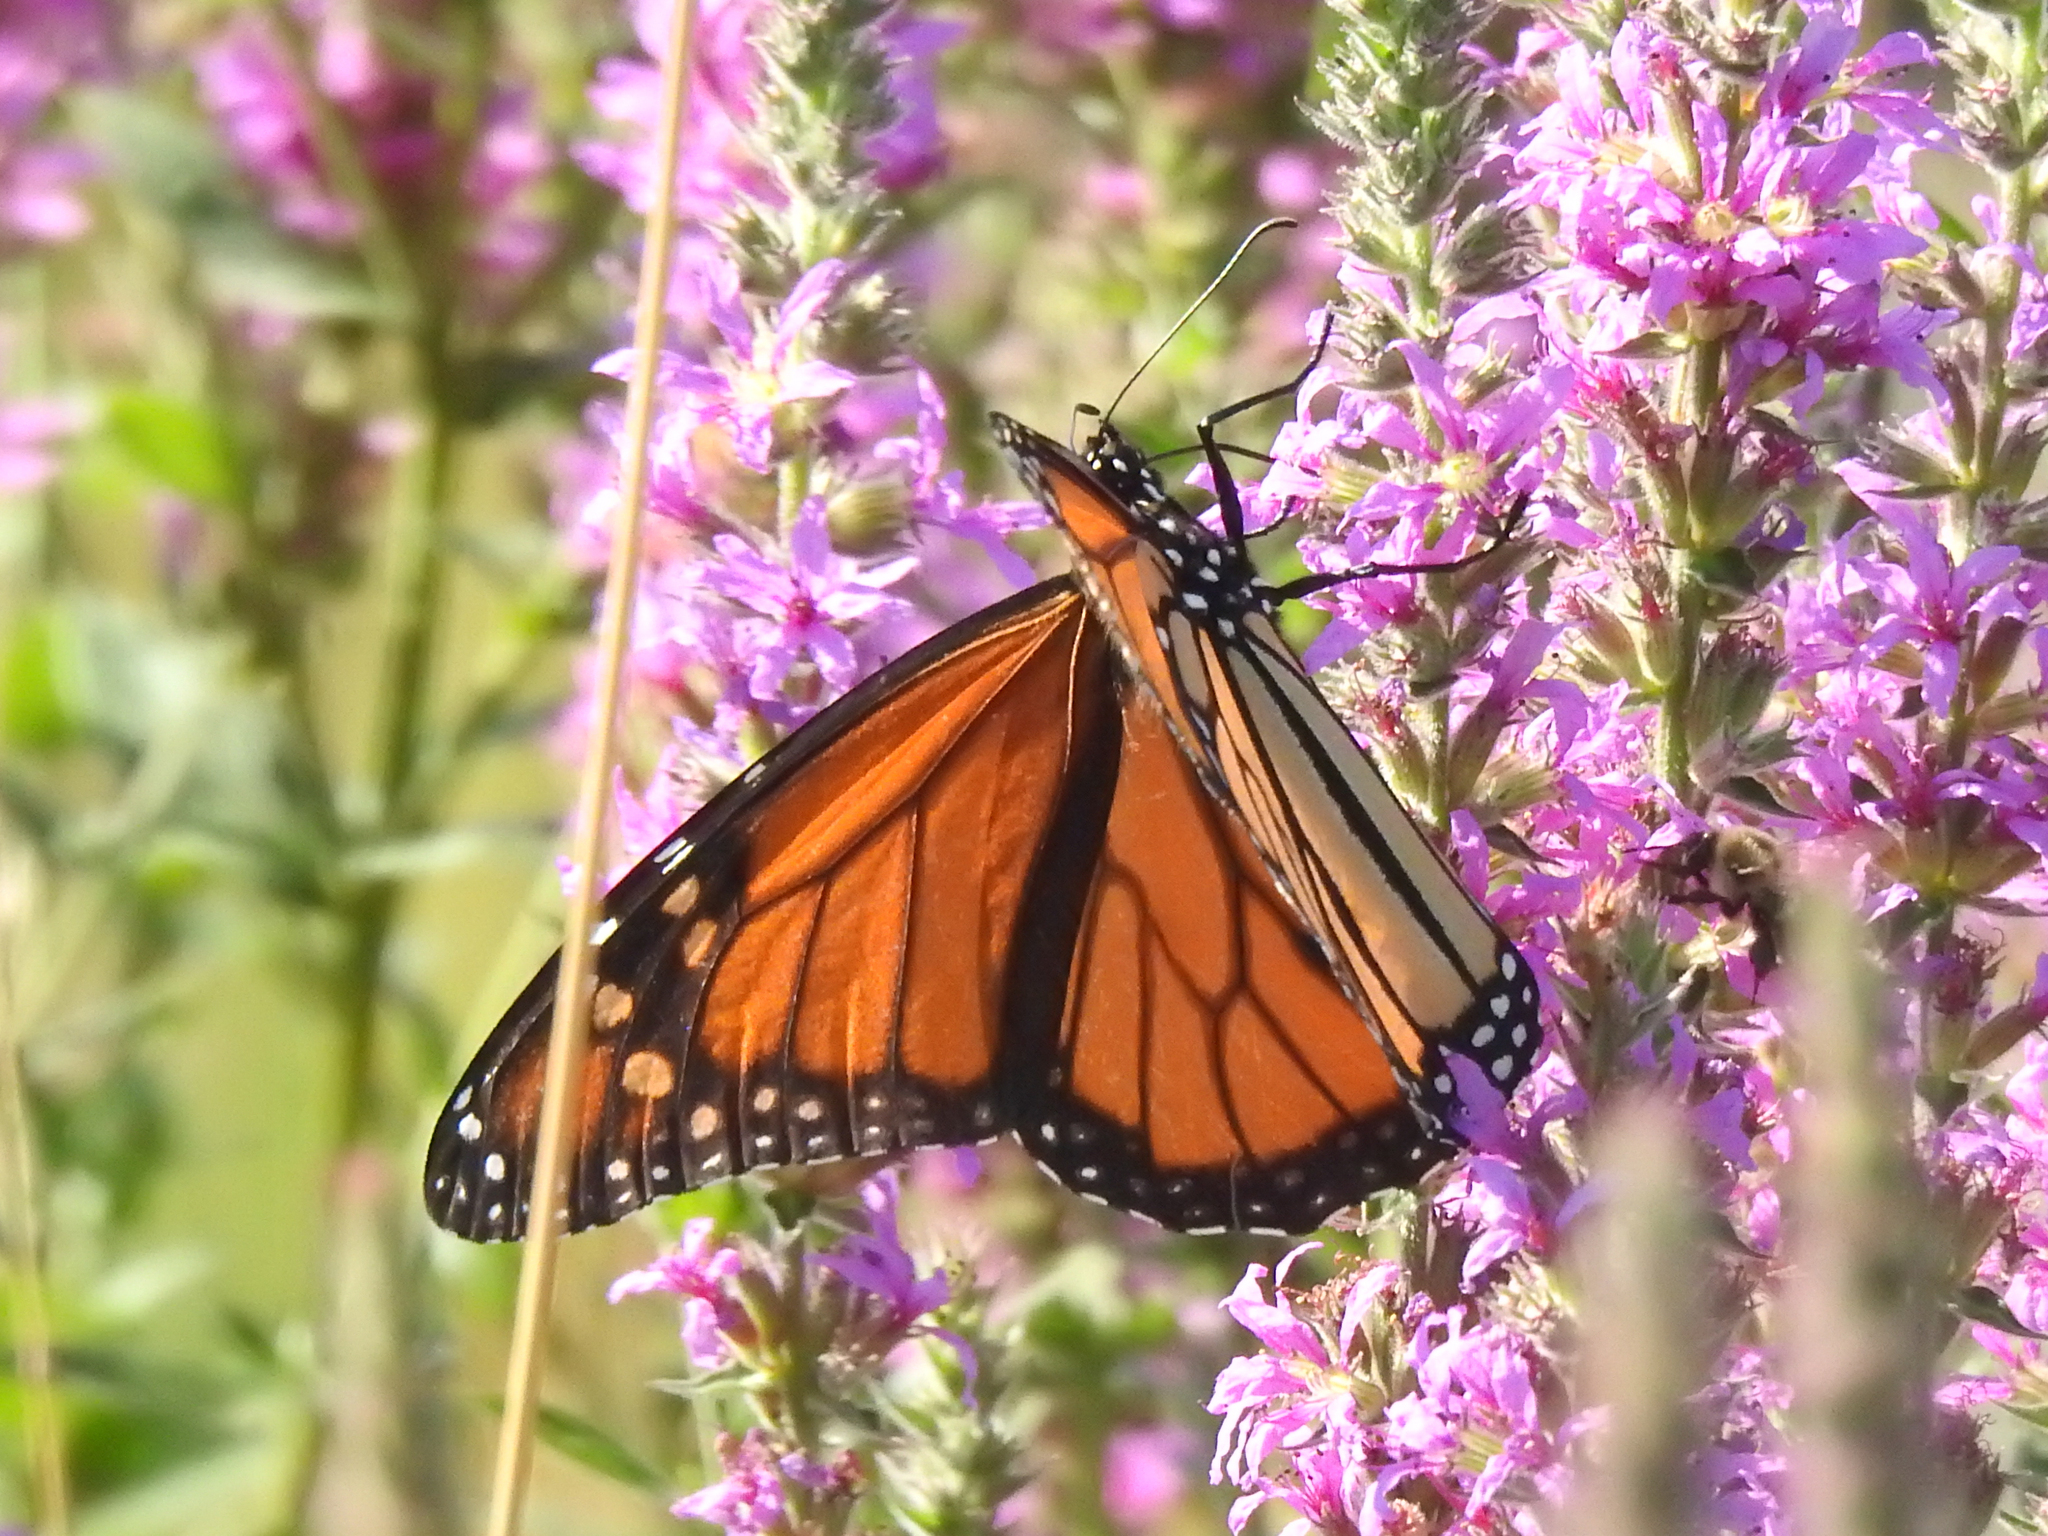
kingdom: Animalia
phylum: Arthropoda
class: Insecta
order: Lepidoptera
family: Nymphalidae
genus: Danaus
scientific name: Danaus plexippus
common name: Monarch
